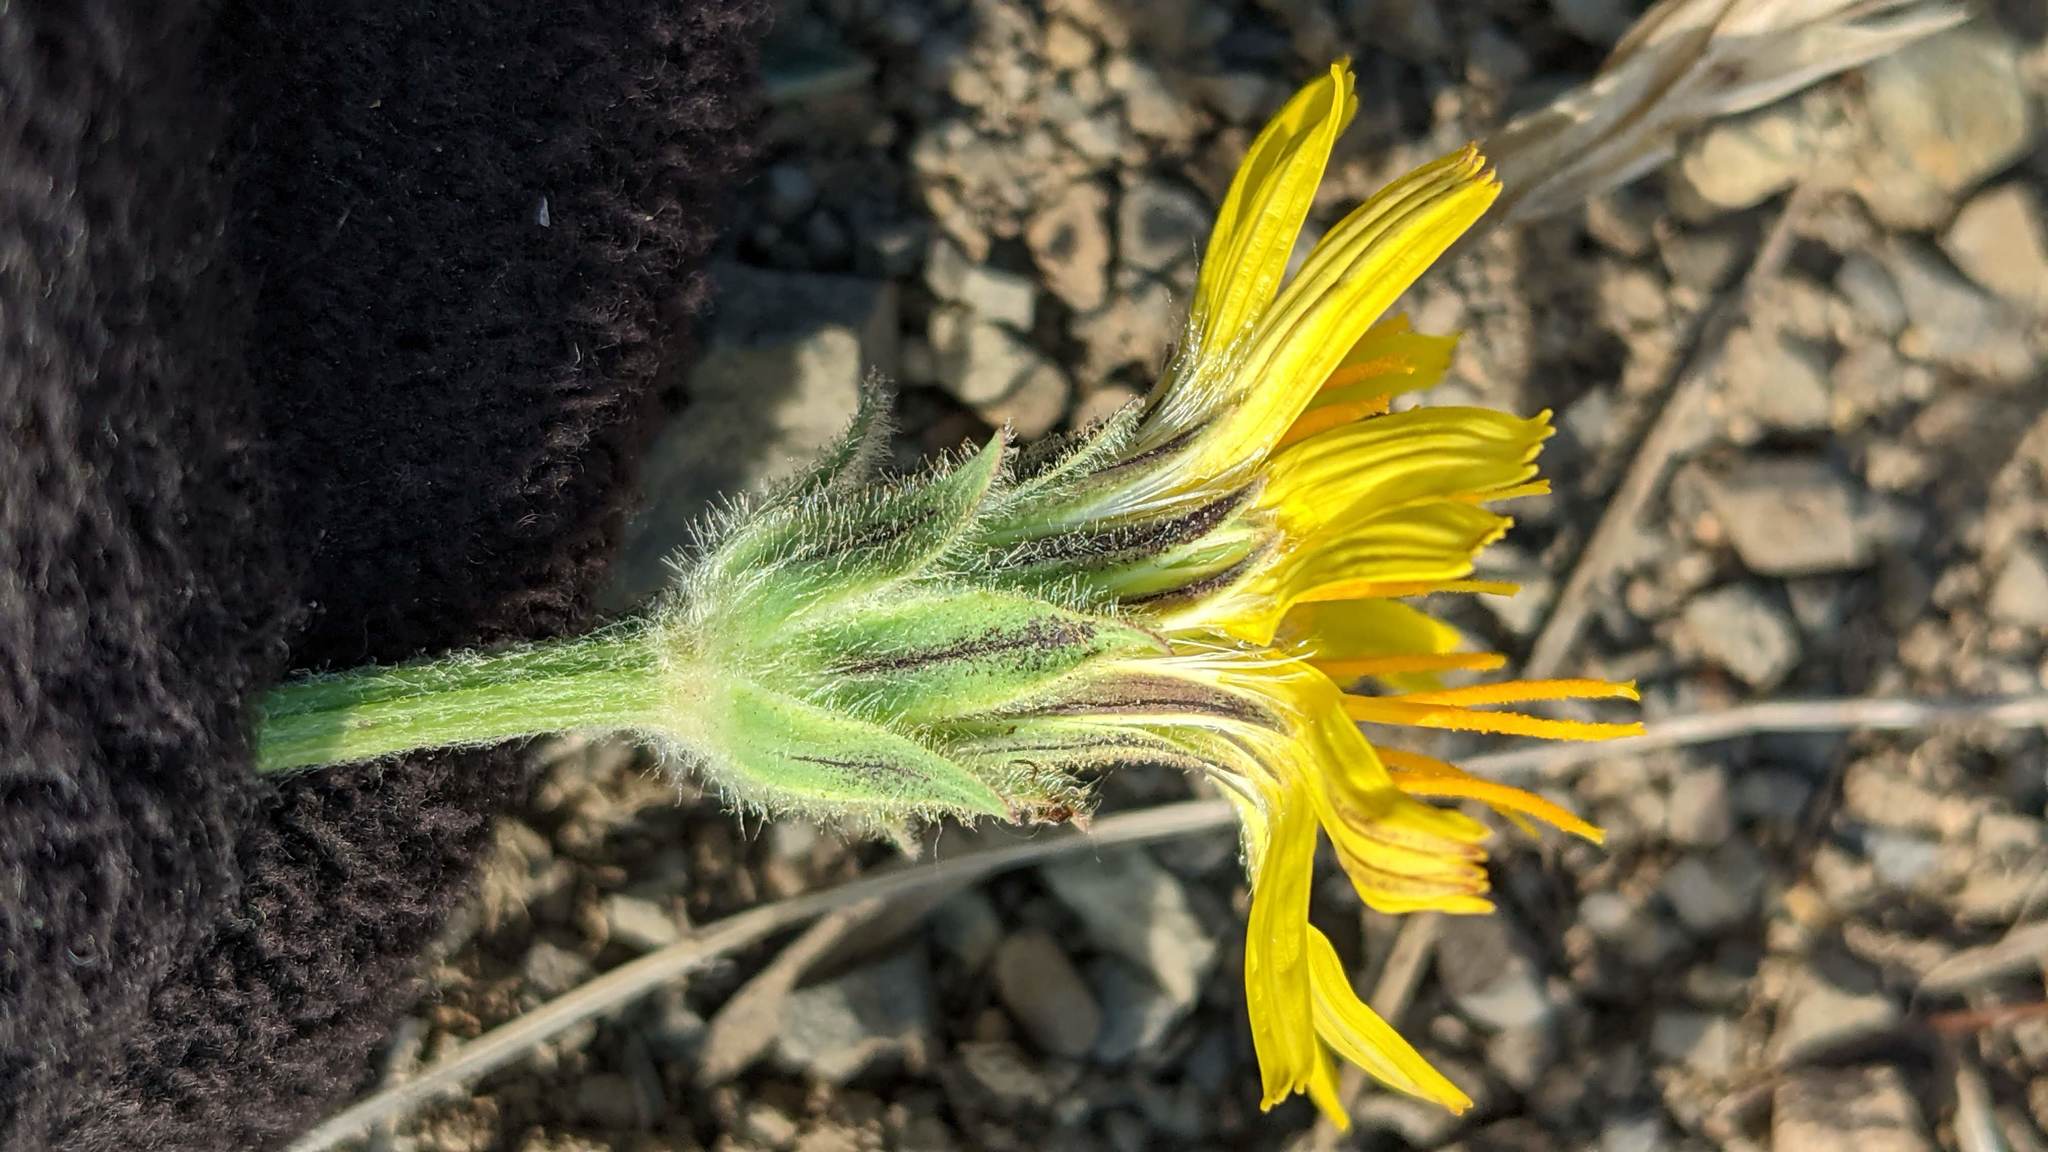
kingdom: Plantae
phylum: Tracheophyta
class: Magnoliopsida
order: Asterales
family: Asteraceae
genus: Agoseris
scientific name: Agoseris glauca
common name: Prairie agoseris
